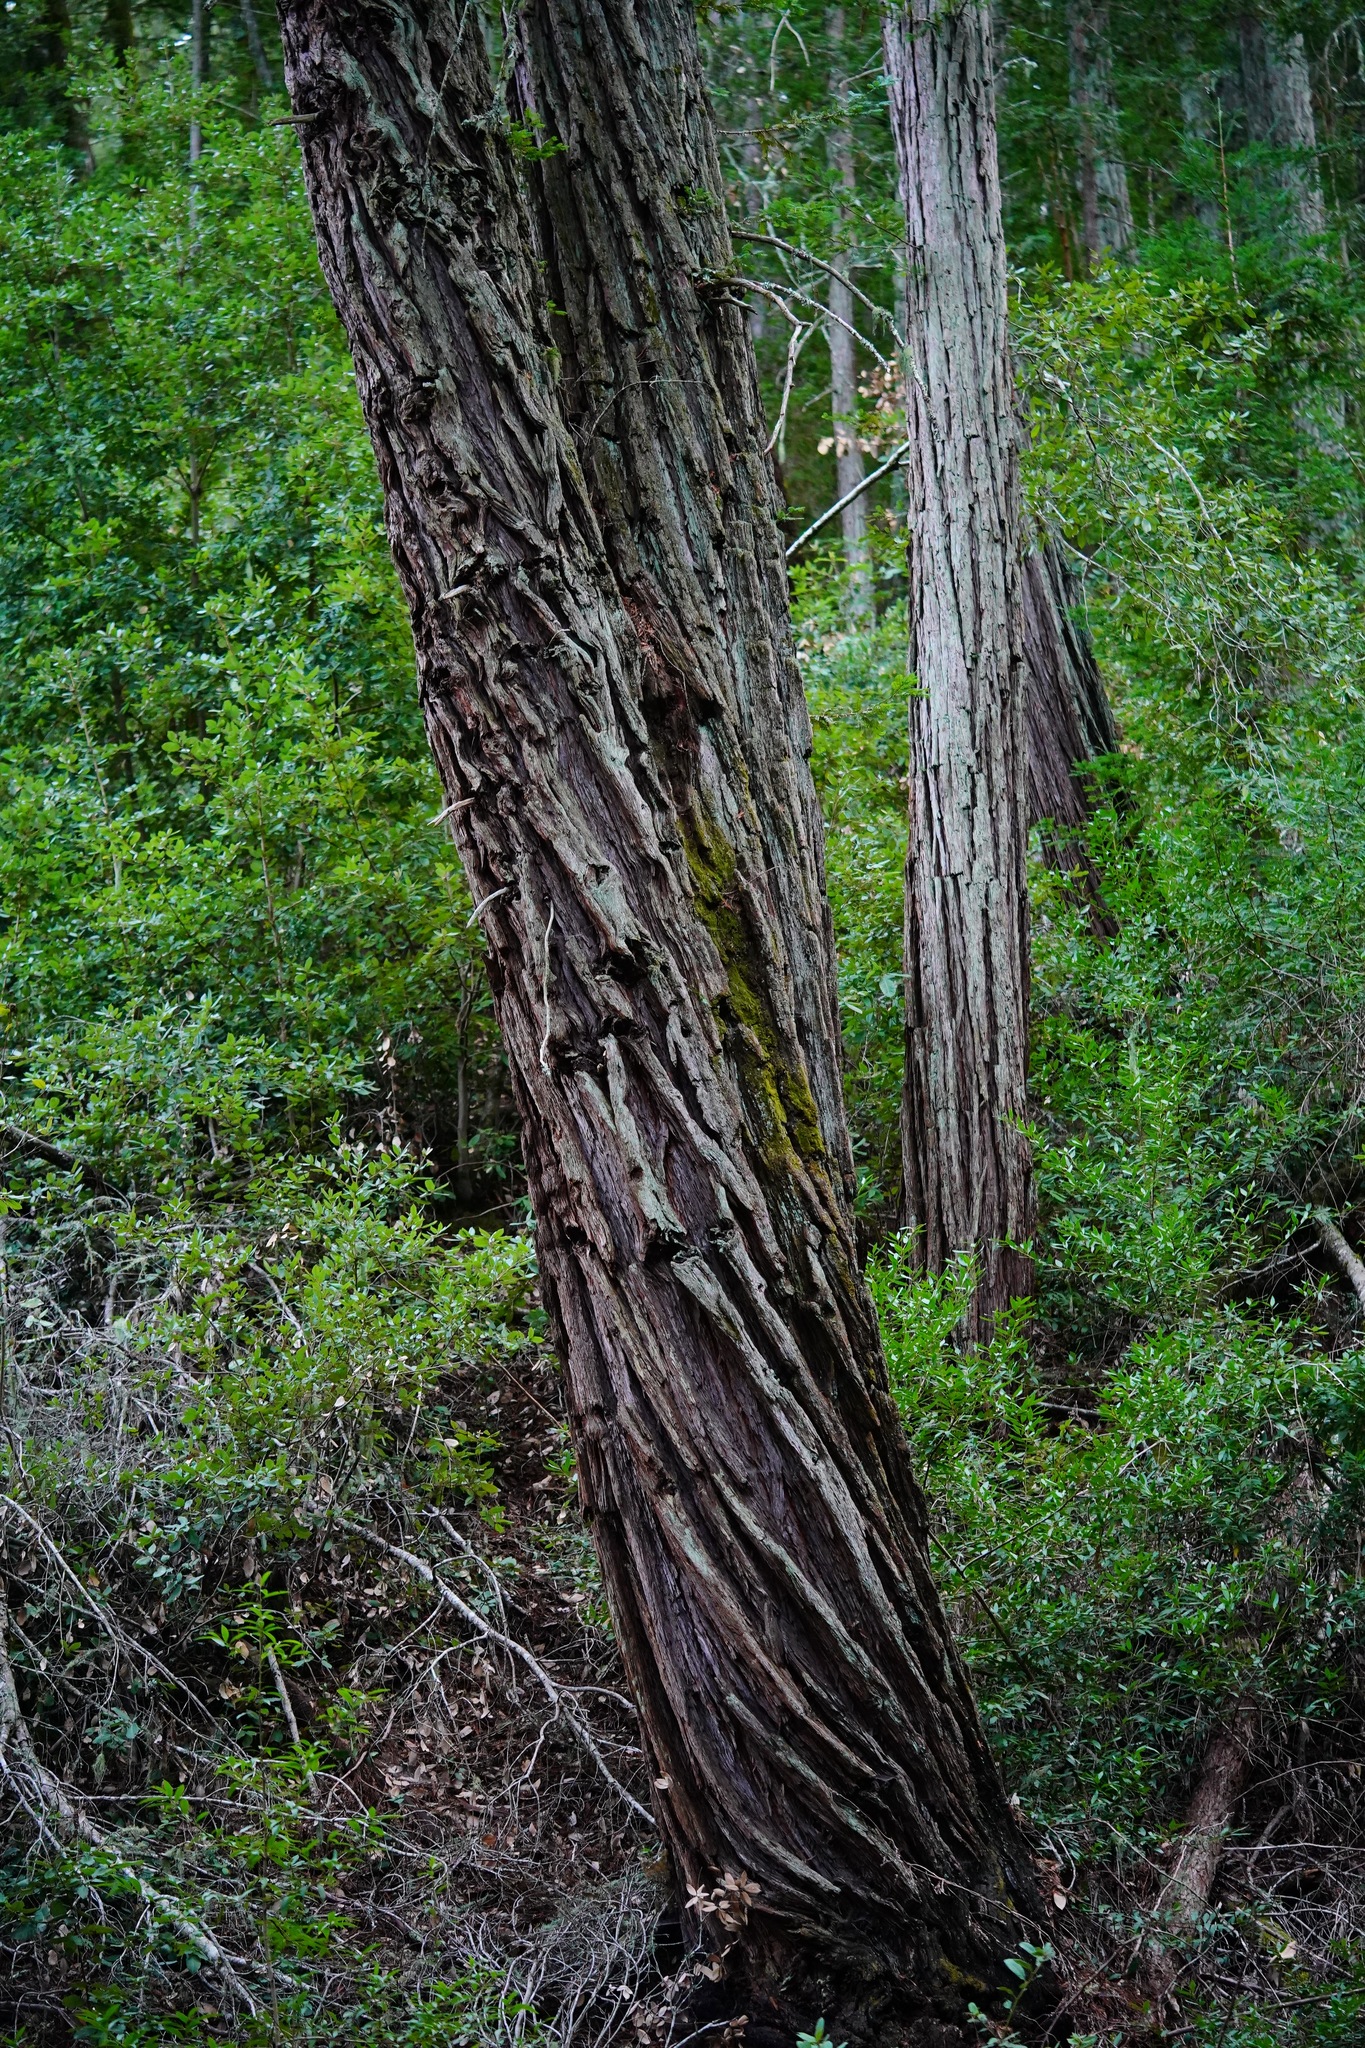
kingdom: Plantae
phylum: Tracheophyta
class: Pinopsida
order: Pinales
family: Cupressaceae
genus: Sequoia
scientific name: Sequoia sempervirens
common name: Coast redwood
